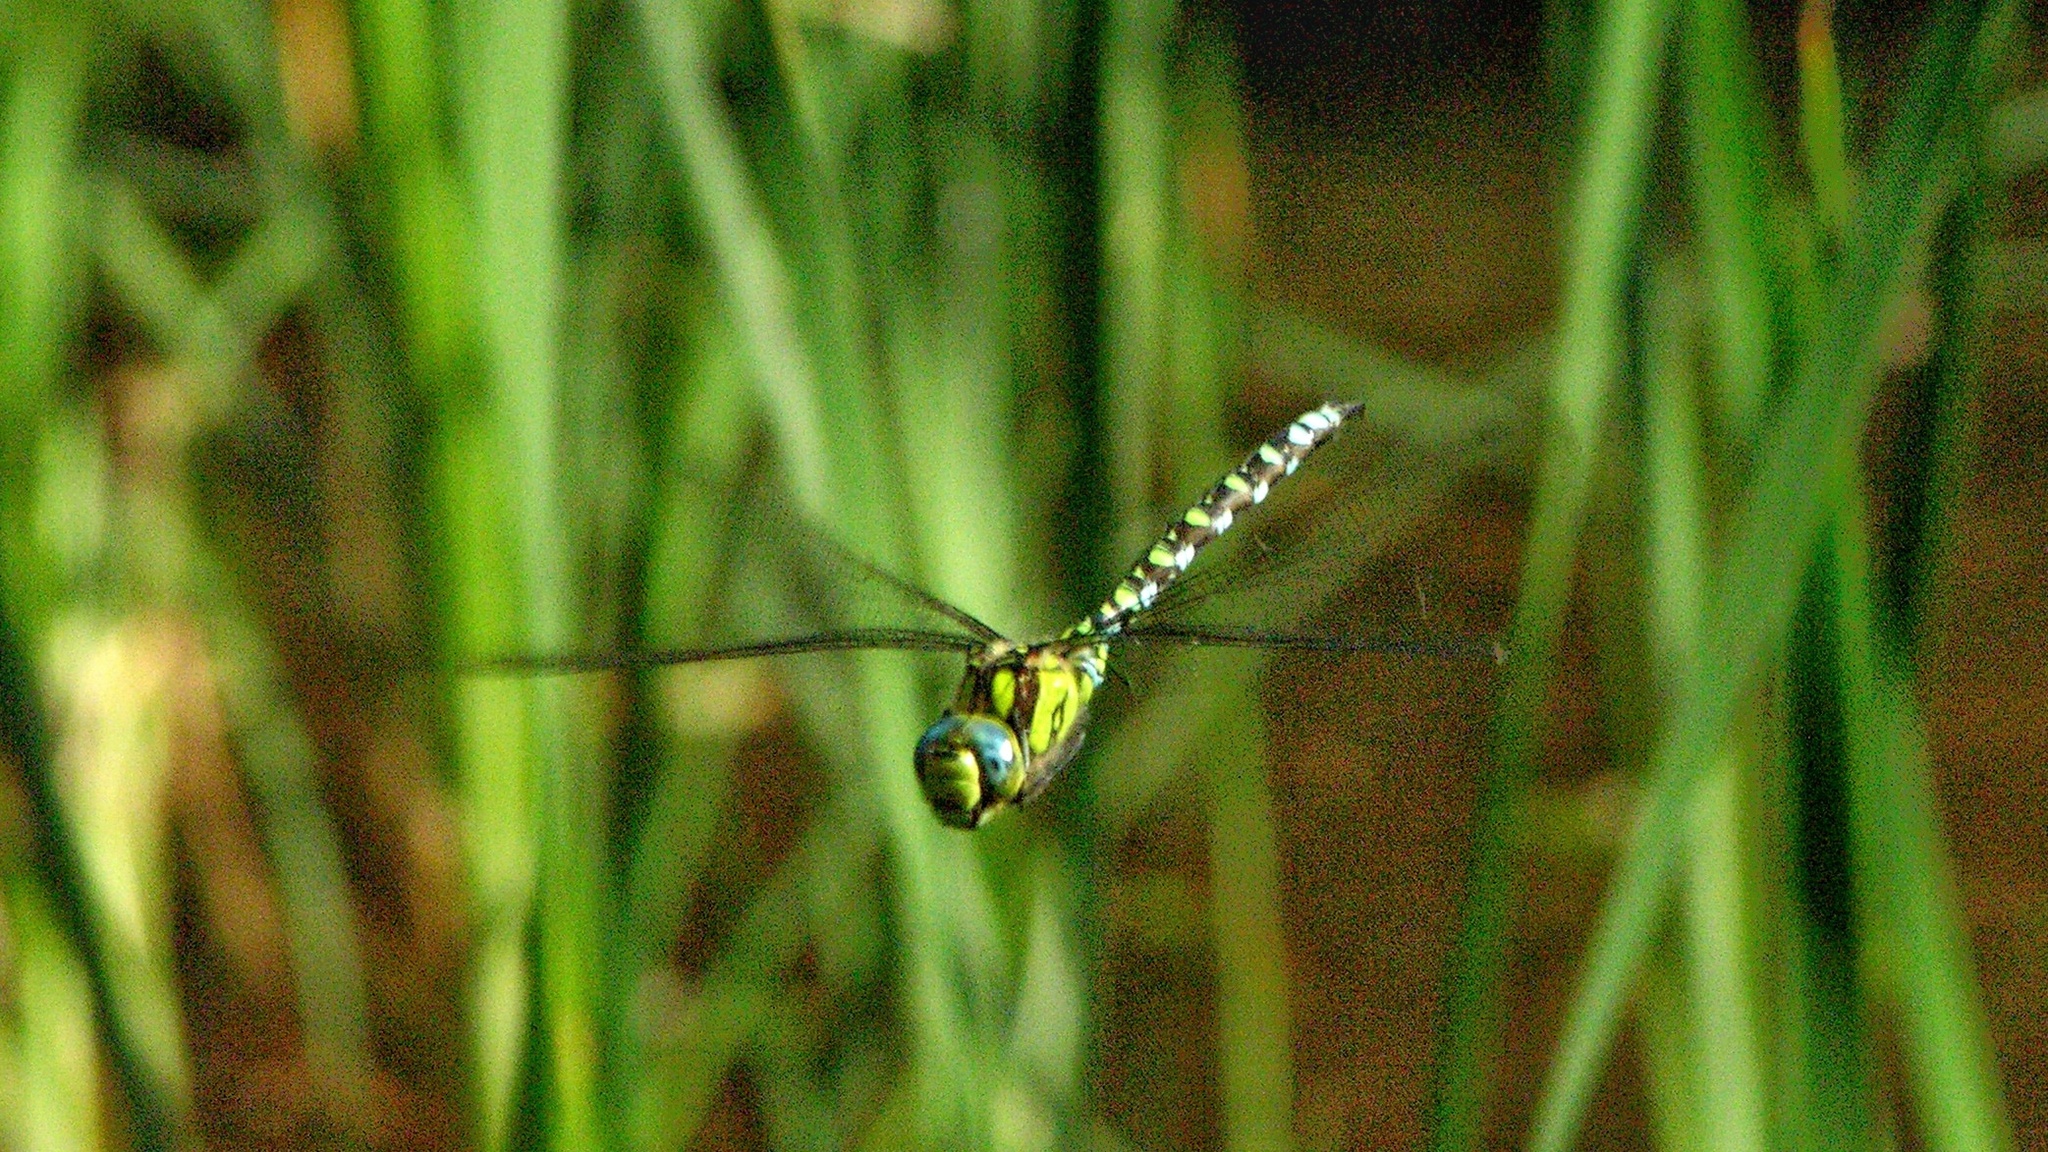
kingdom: Animalia
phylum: Arthropoda
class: Insecta
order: Odonata
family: Aeshnidae
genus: Aeshna
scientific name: Aeshna cyanea
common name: Southern hawker
